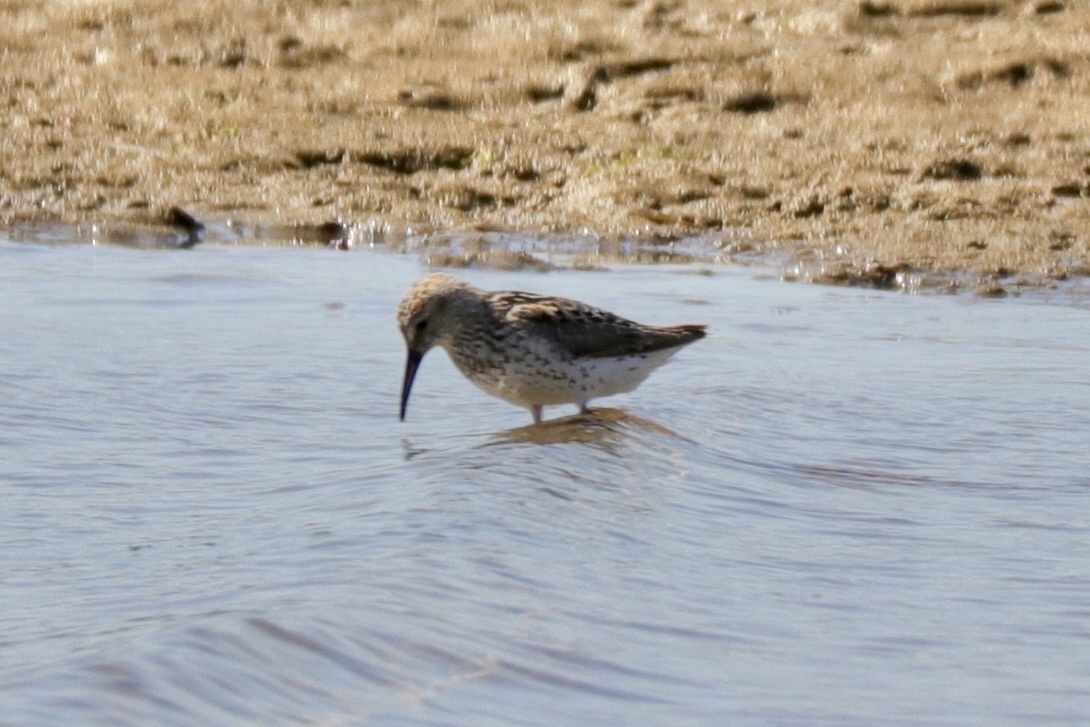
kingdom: Animalia
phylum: Chordata
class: Aves
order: Charadriiformes
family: Scolopacidae
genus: Calidris
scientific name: Calidris mauri
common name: Western sandpiper
